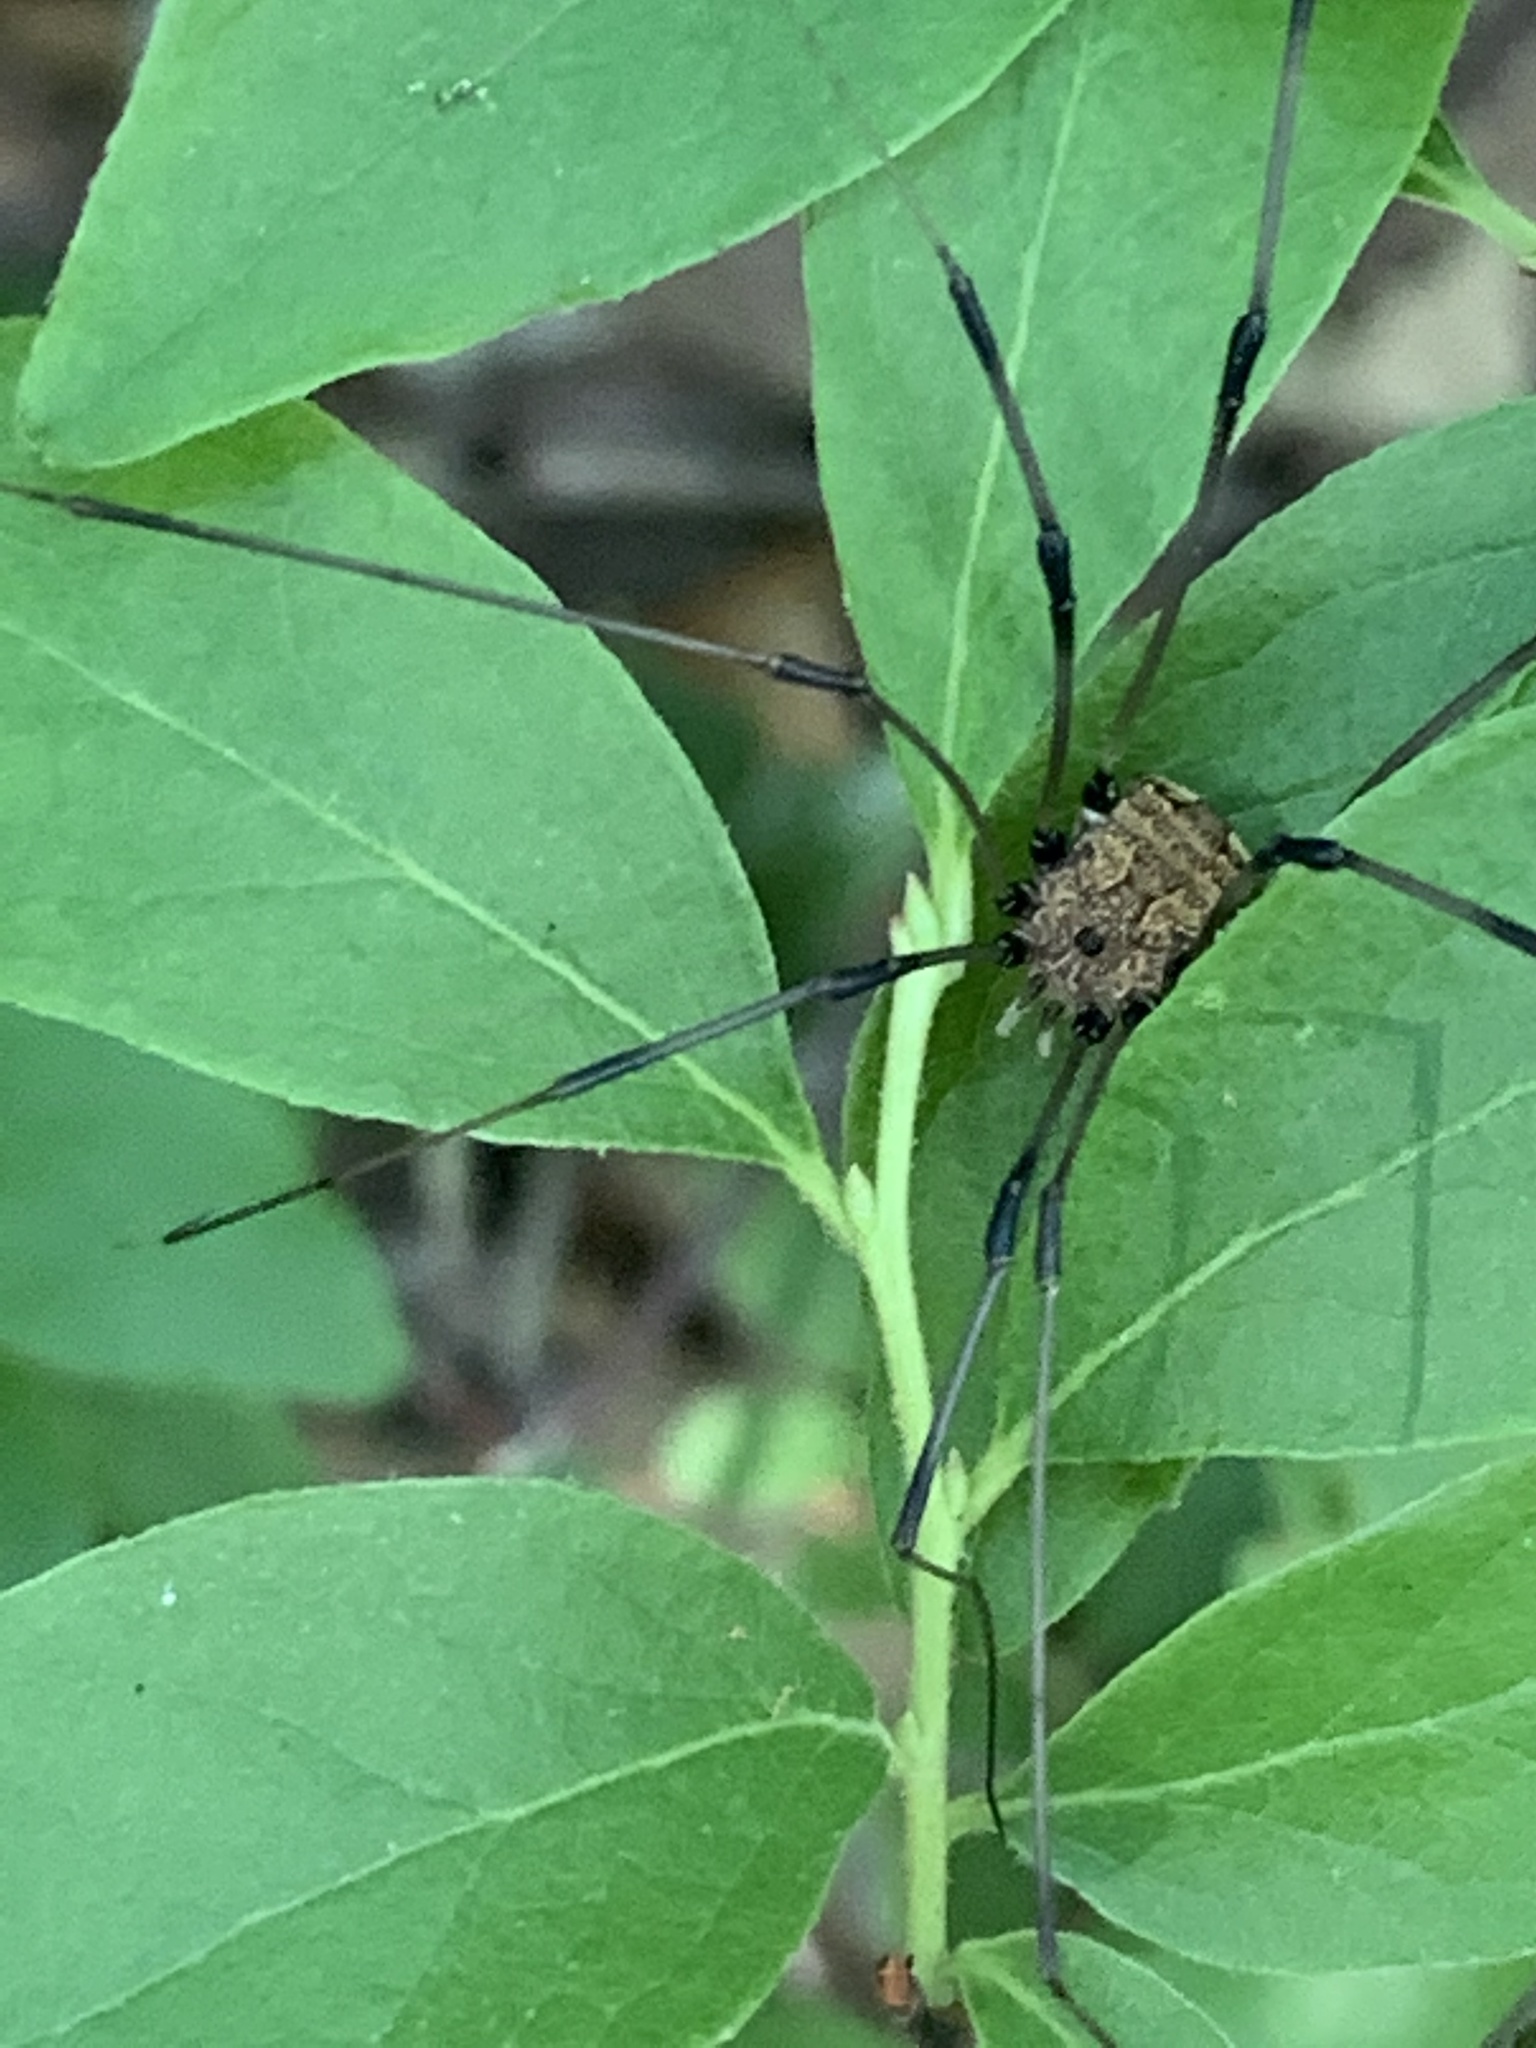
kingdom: Animalia
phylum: Arthropoda
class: Arachnida
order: Opiliones
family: Sclerosomatidae
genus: Leiobunum
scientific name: Leiobunum vittatum
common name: Eastern harvestman
